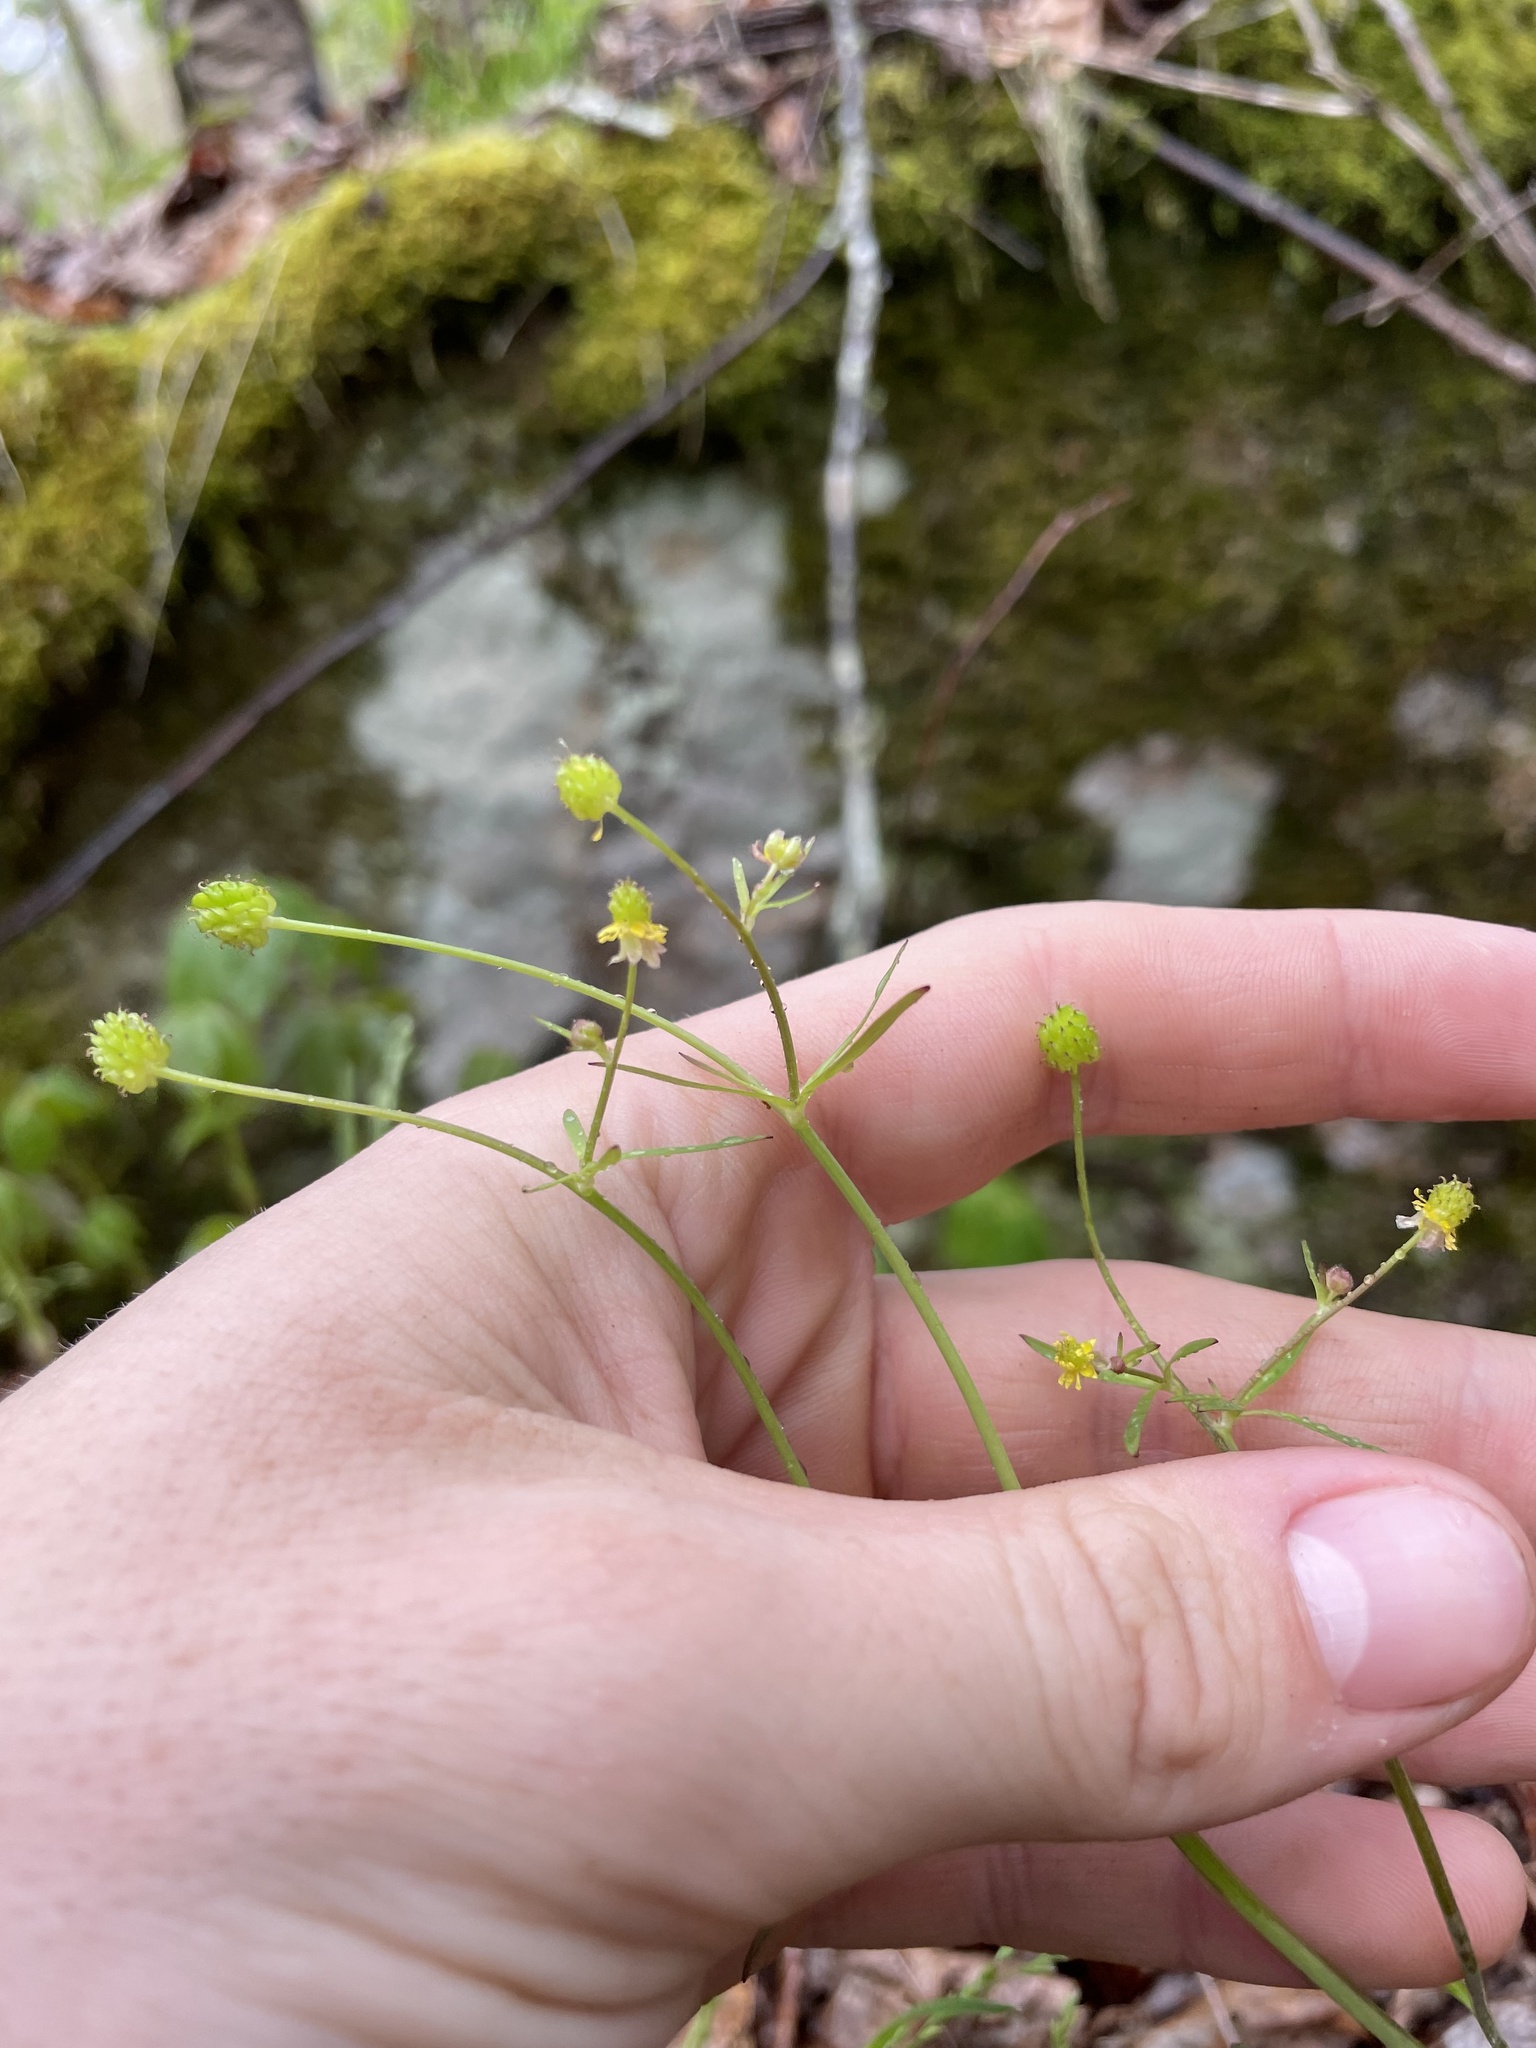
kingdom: Plantae
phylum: Tracheophyta
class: Magnoliopsida
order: Ranunculales
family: Ranunculaceae
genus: Ranunculus
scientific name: Ranunculus allegheniensis
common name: Allegheny mountain buttercup
